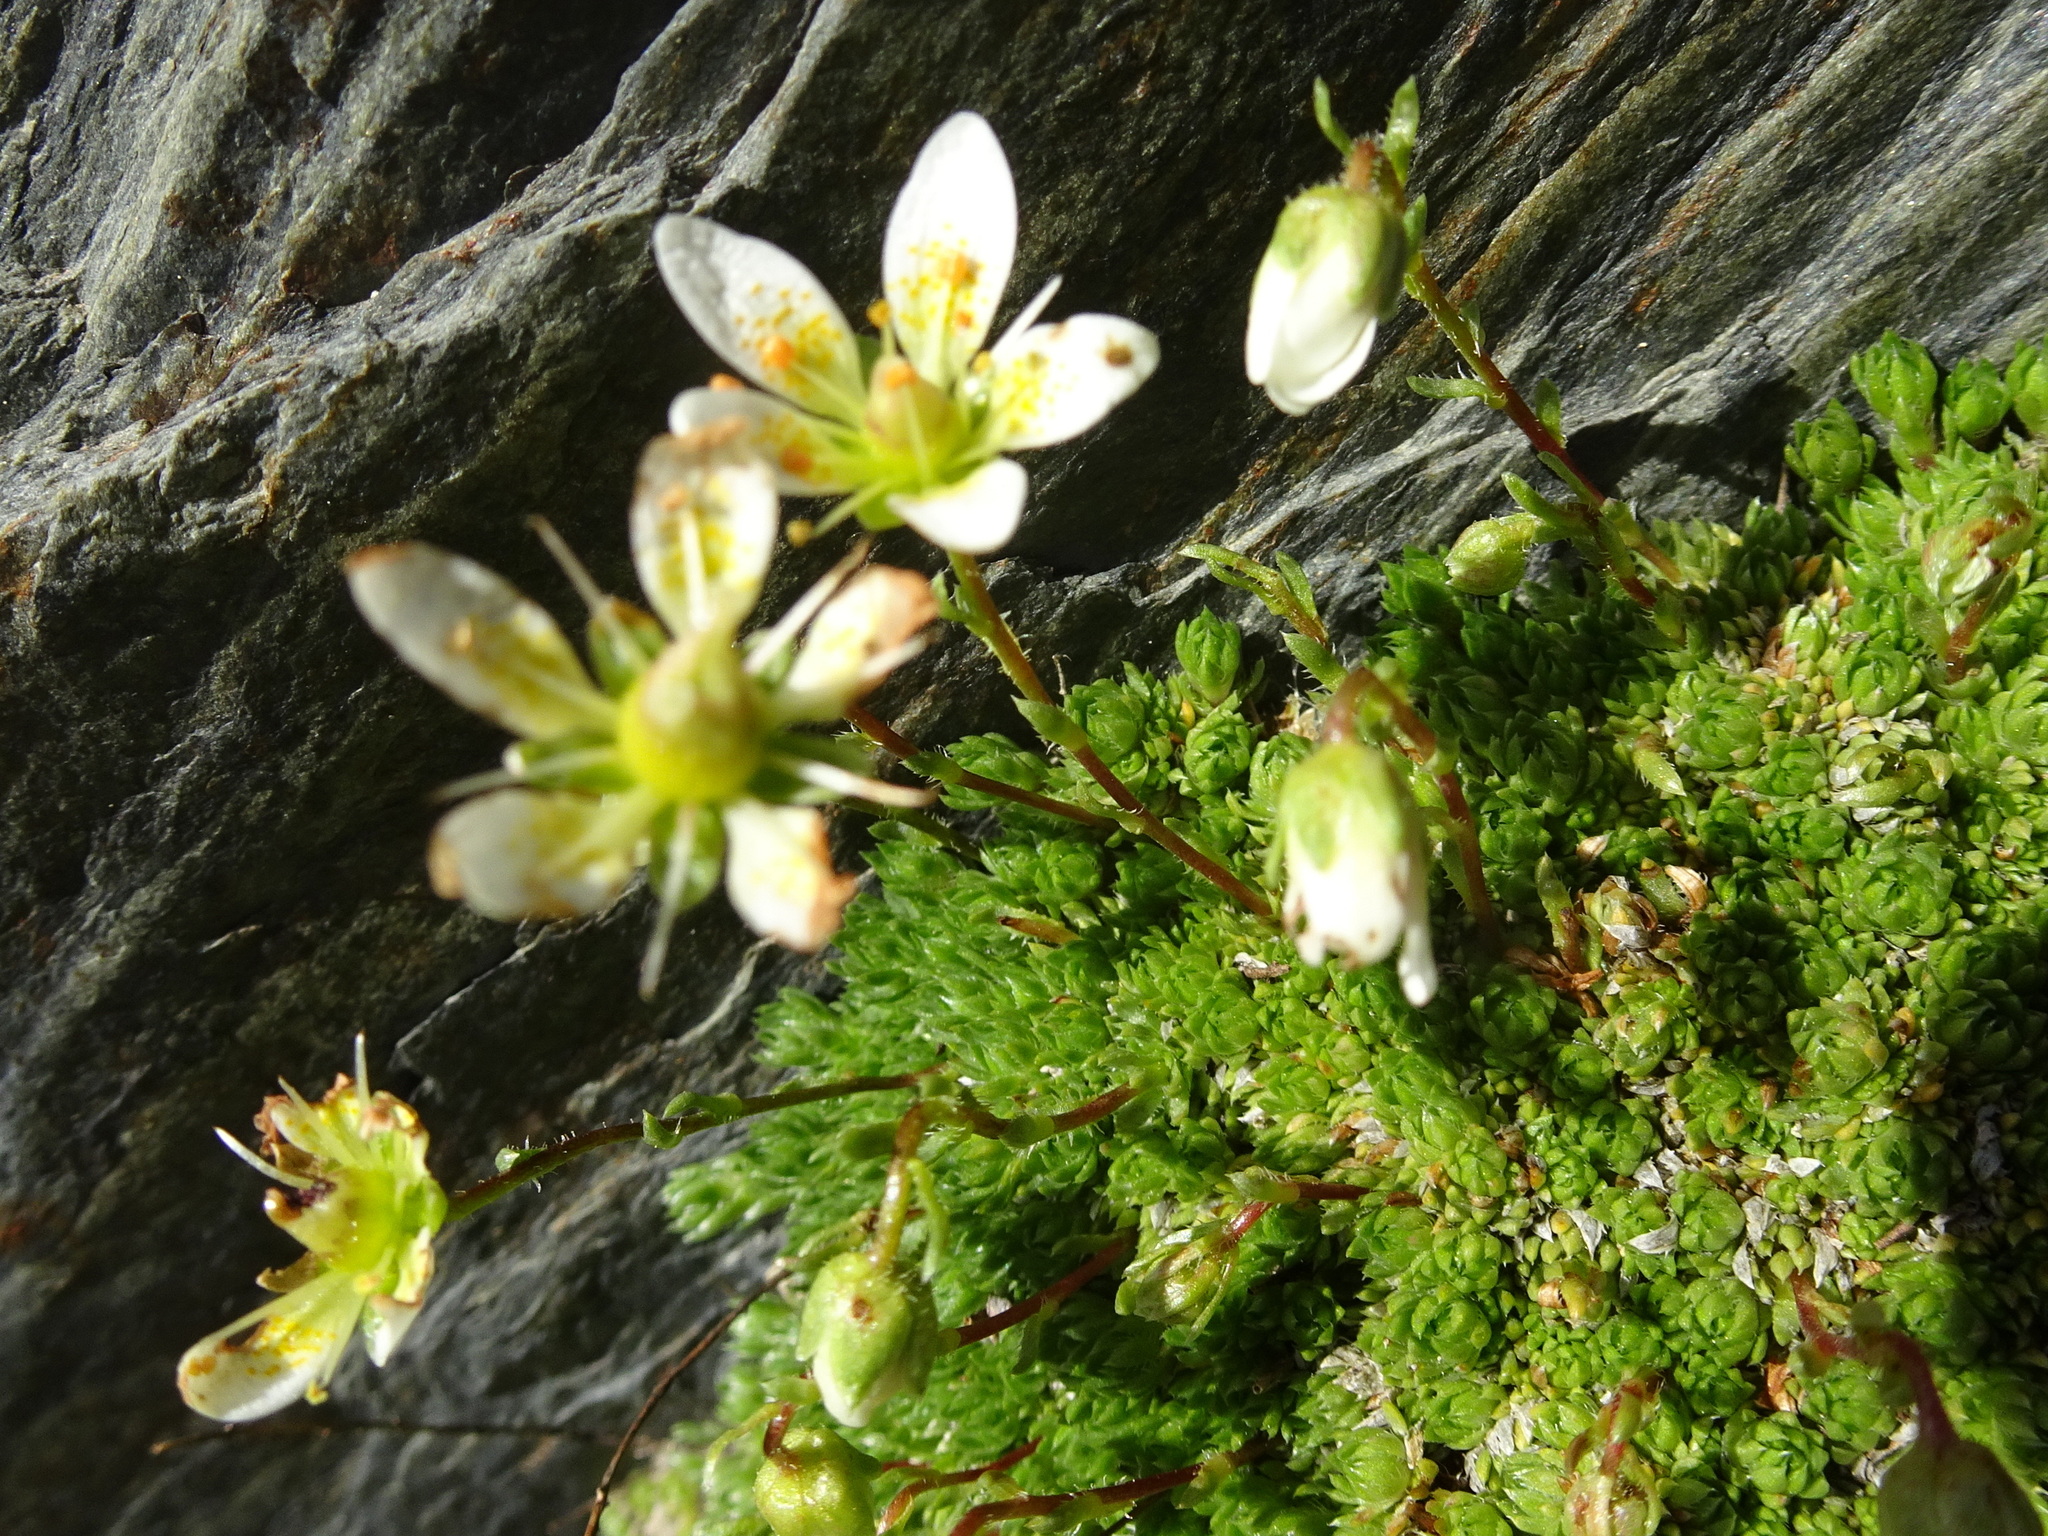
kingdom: Plantae
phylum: Tracheophyta
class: Magnoliopsida
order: Saxifragales
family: Saxifragaceae
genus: Saxifraga
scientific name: Saxifraga bryoides
